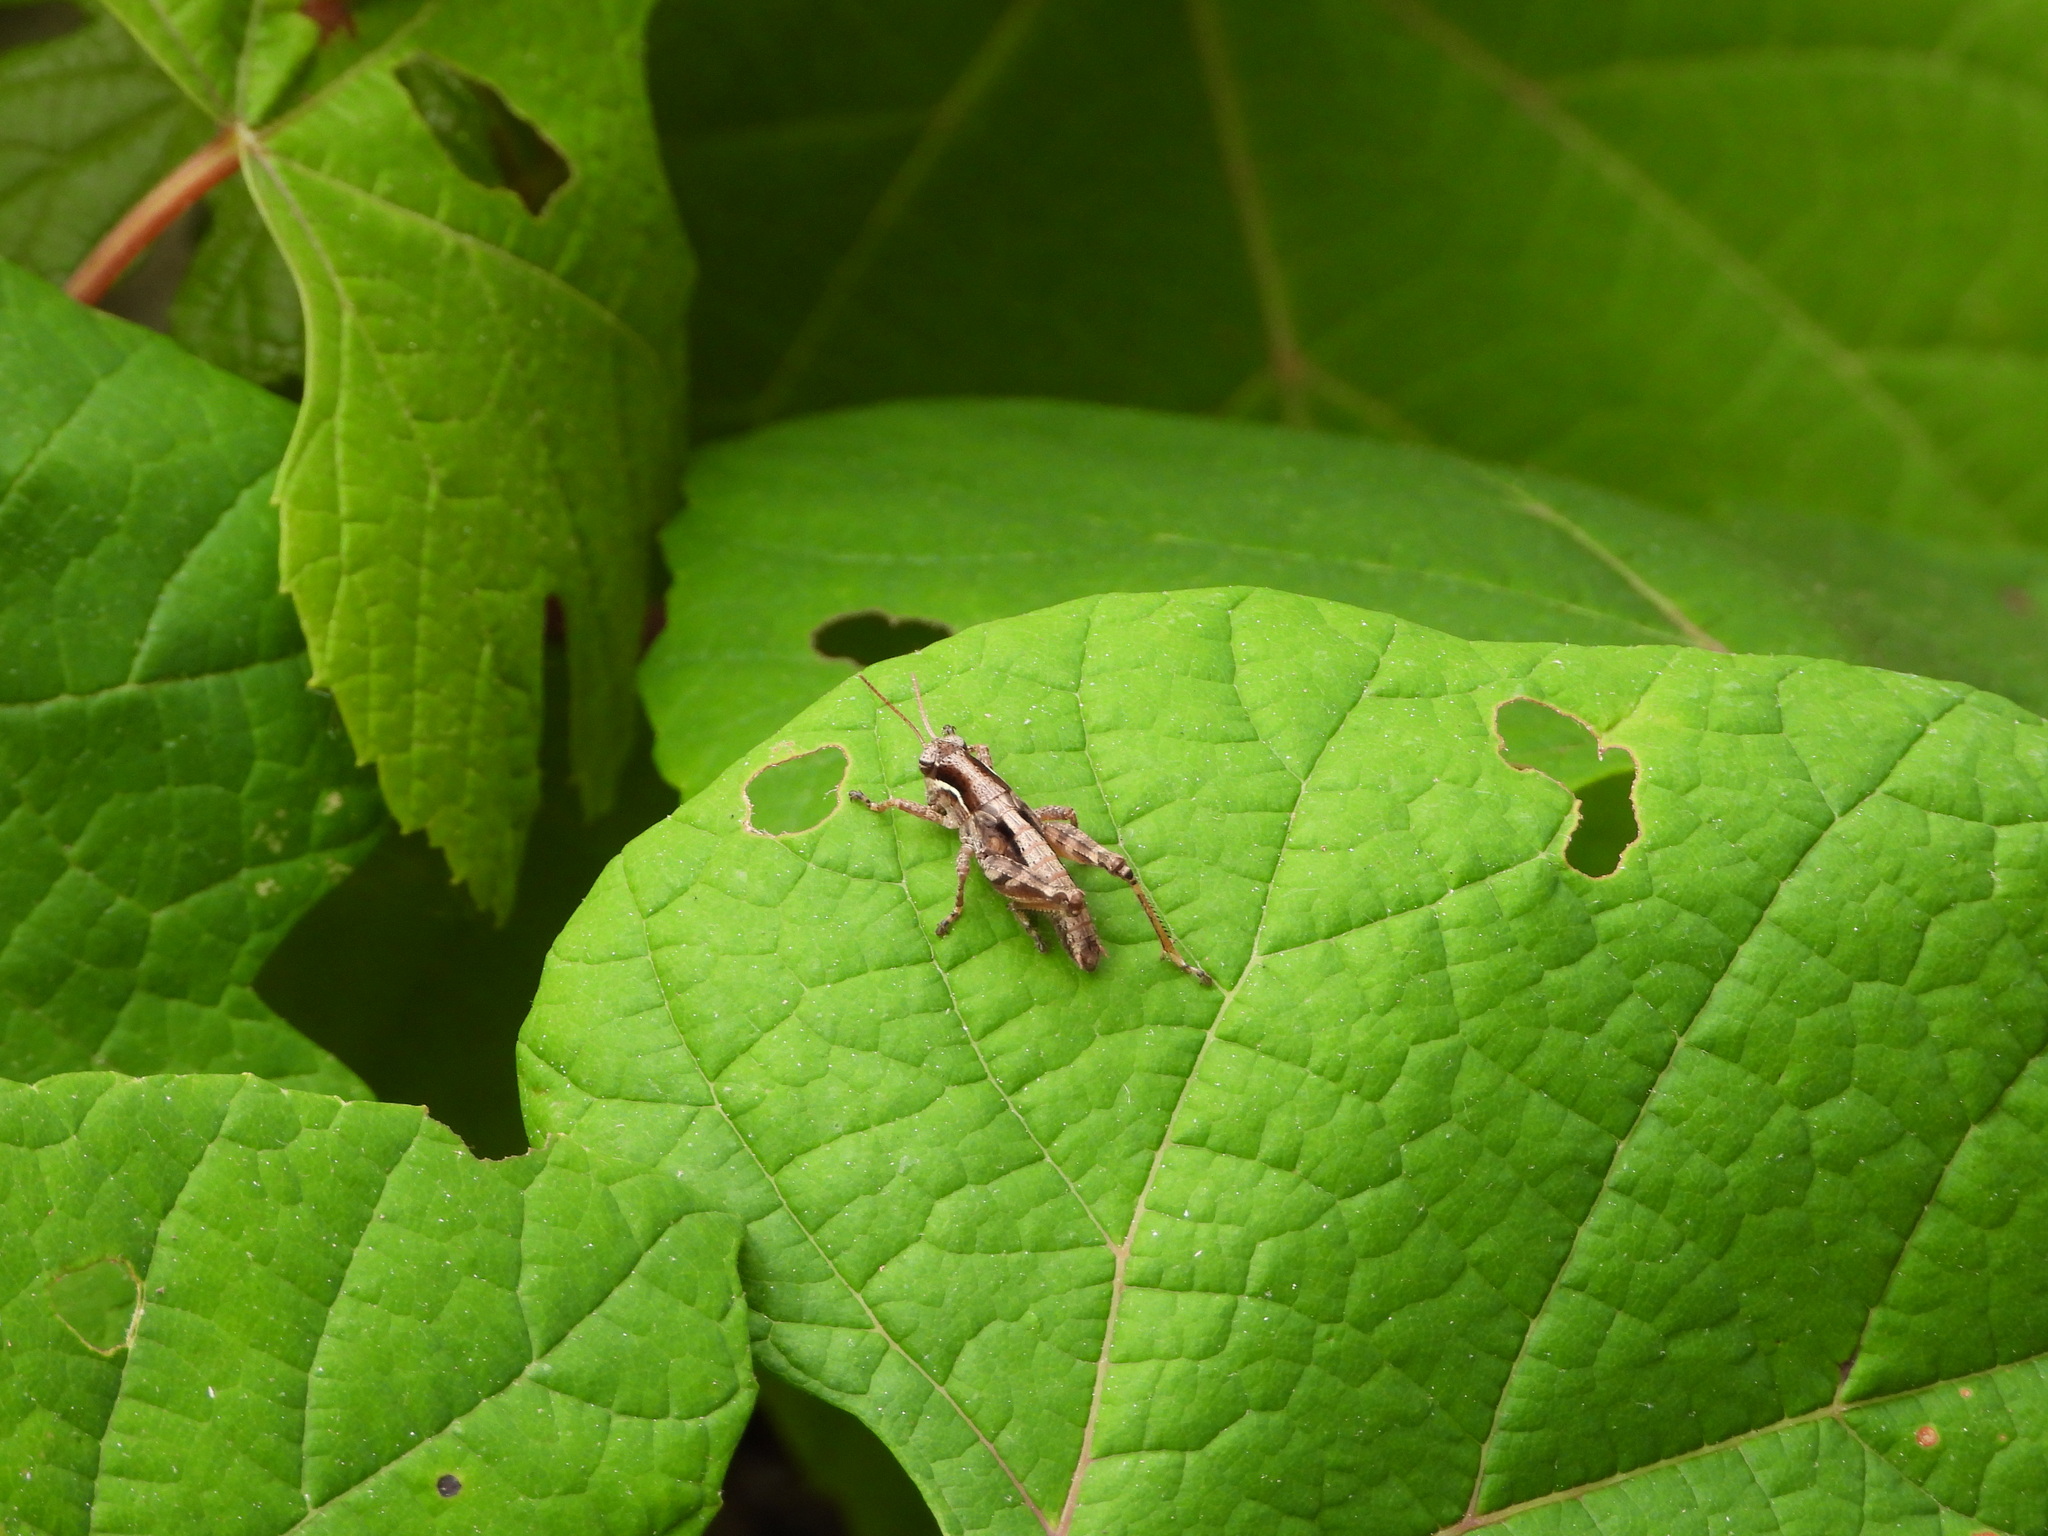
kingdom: Animalia
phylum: Arthropoda
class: Insecta
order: Orthoptera
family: Acrididae
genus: Melanoplus
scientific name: Melanoplus lindemanni
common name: Lindemann's pouncer
